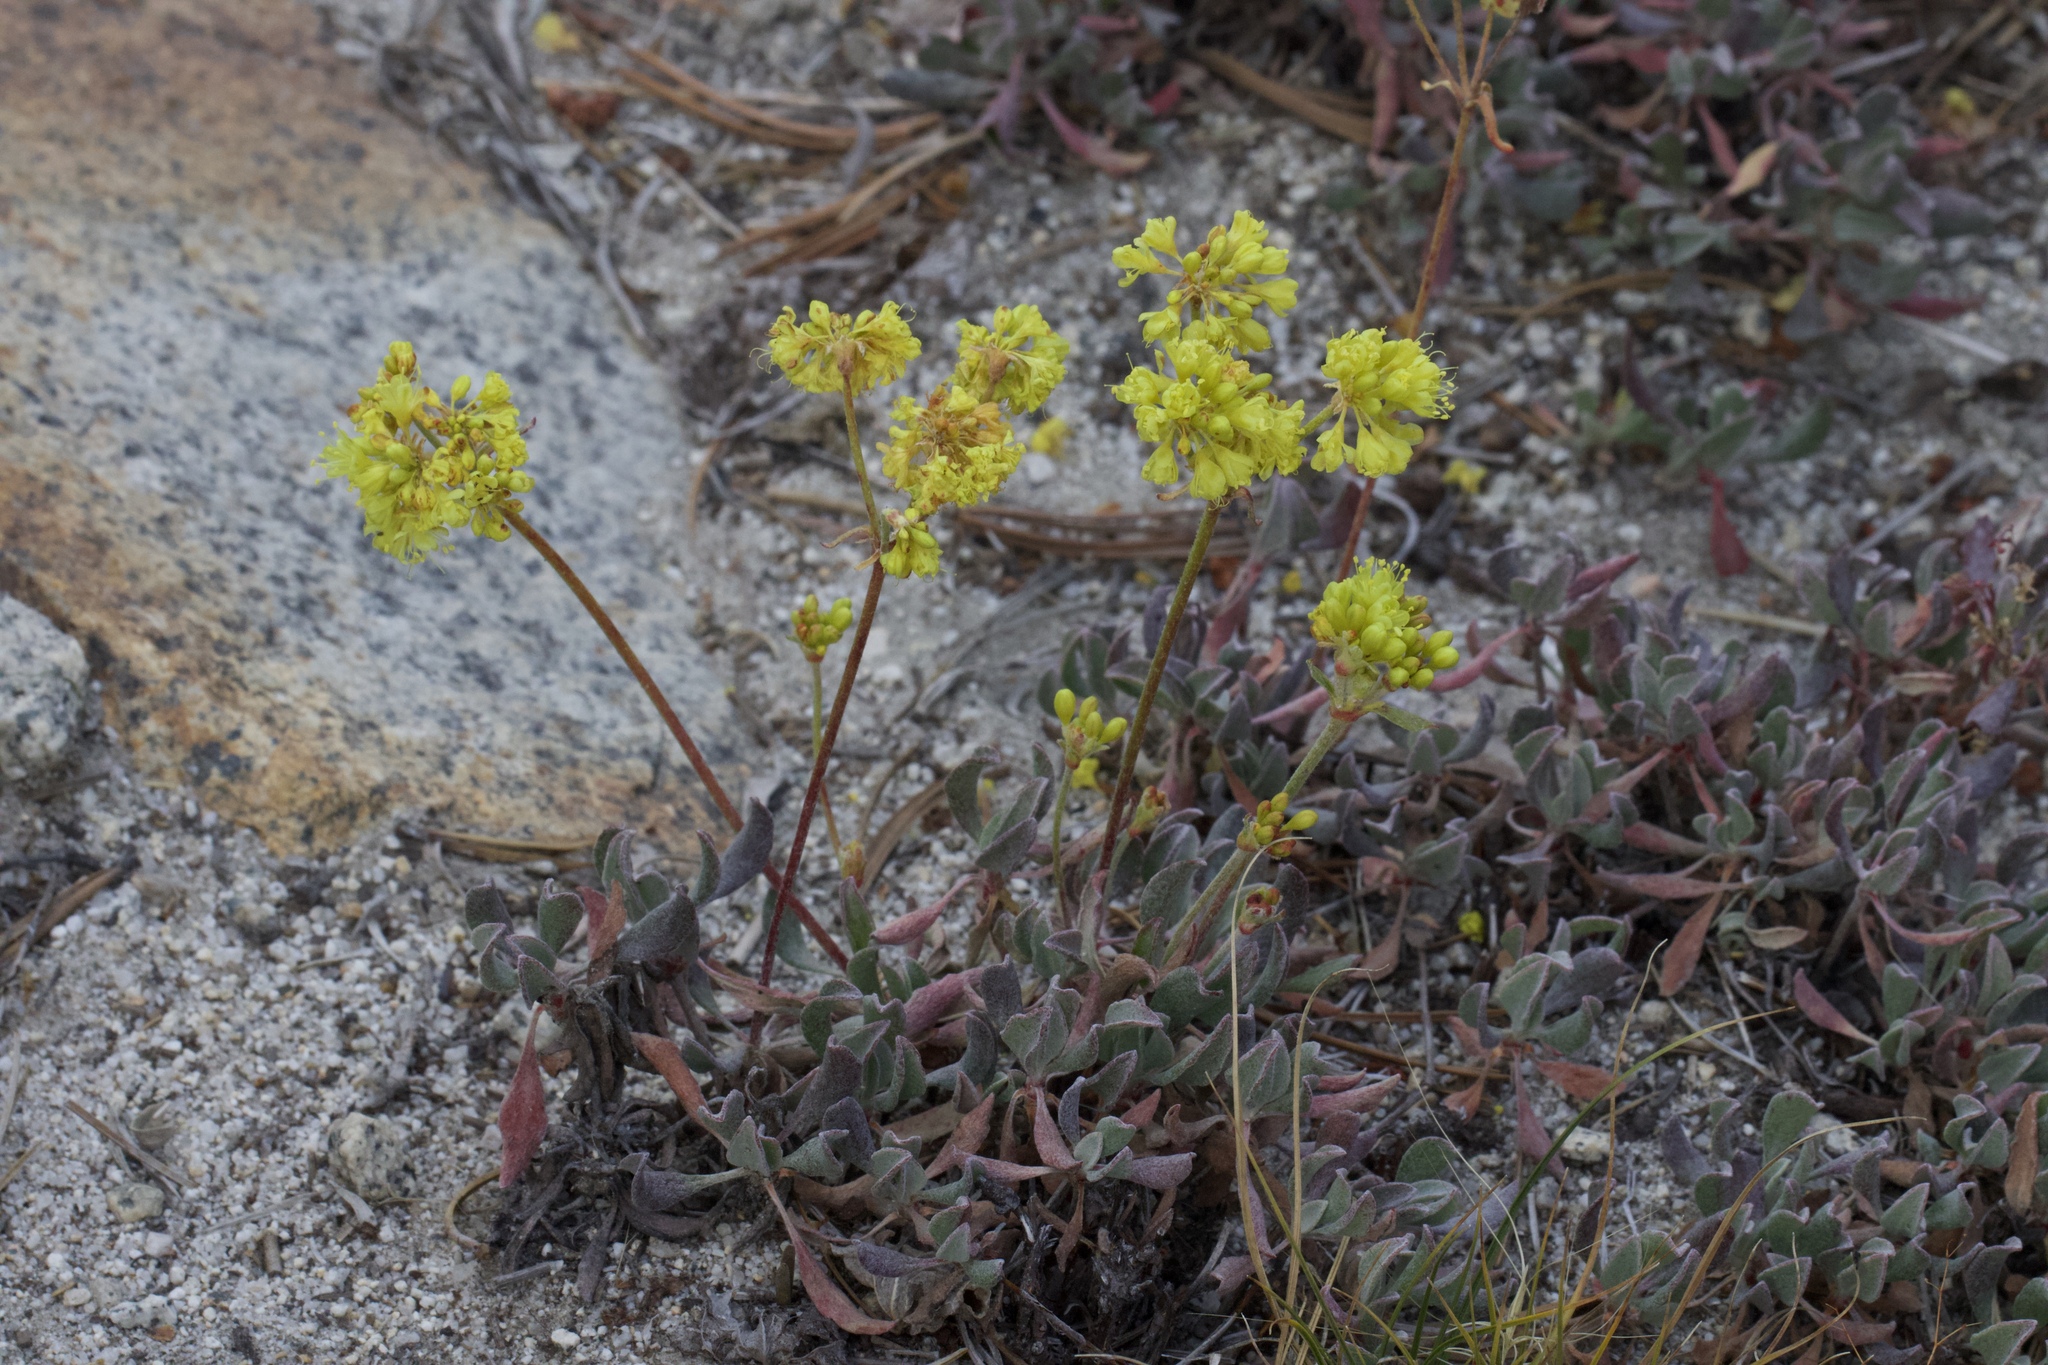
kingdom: Plantae
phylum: Tracheophyta
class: Magnoliopsida
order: Caryophyllales
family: Polygonaceae
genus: Eriogonum
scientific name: Eriogonum umbellatum
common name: Sulfur-buckwheat
